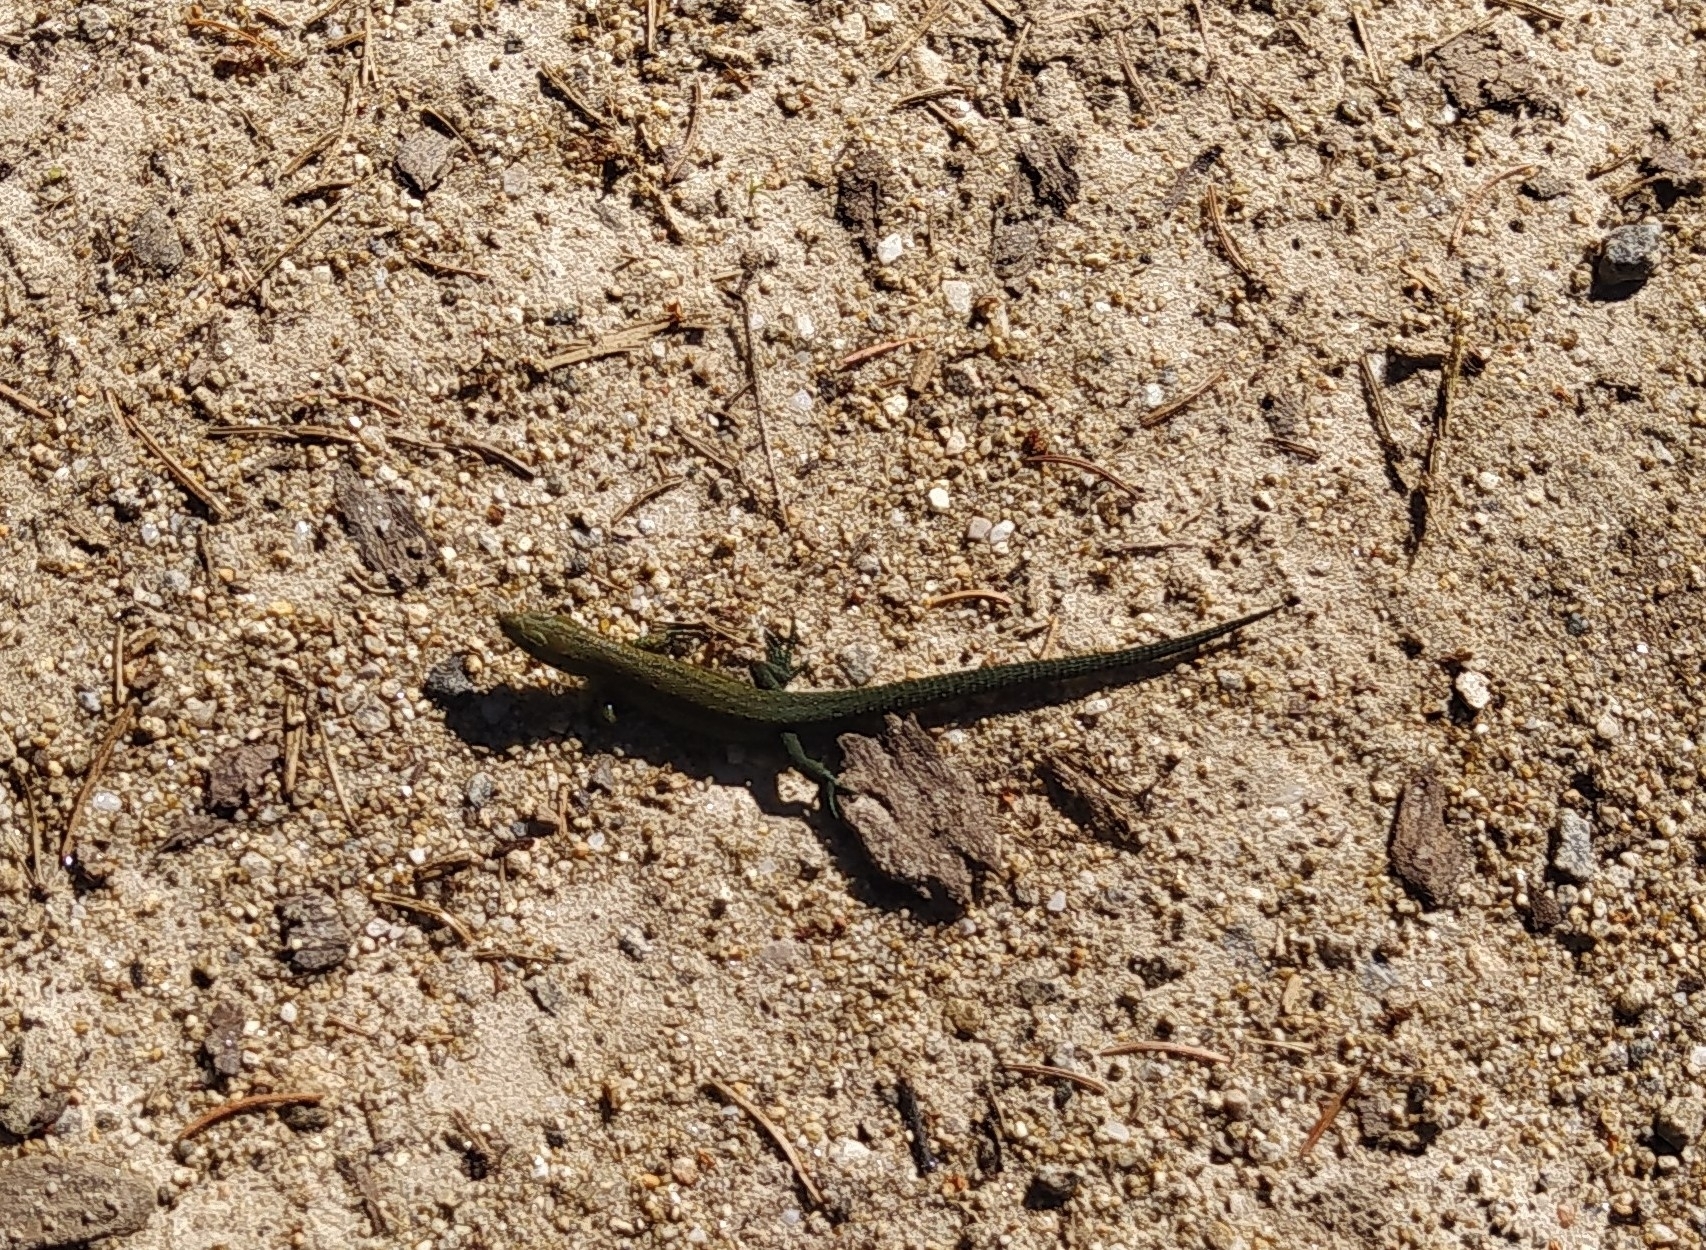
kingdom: Animalia
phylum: Chordata
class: Squamata
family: Lacertidae
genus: Zootoca
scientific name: Zootoca vivipara
